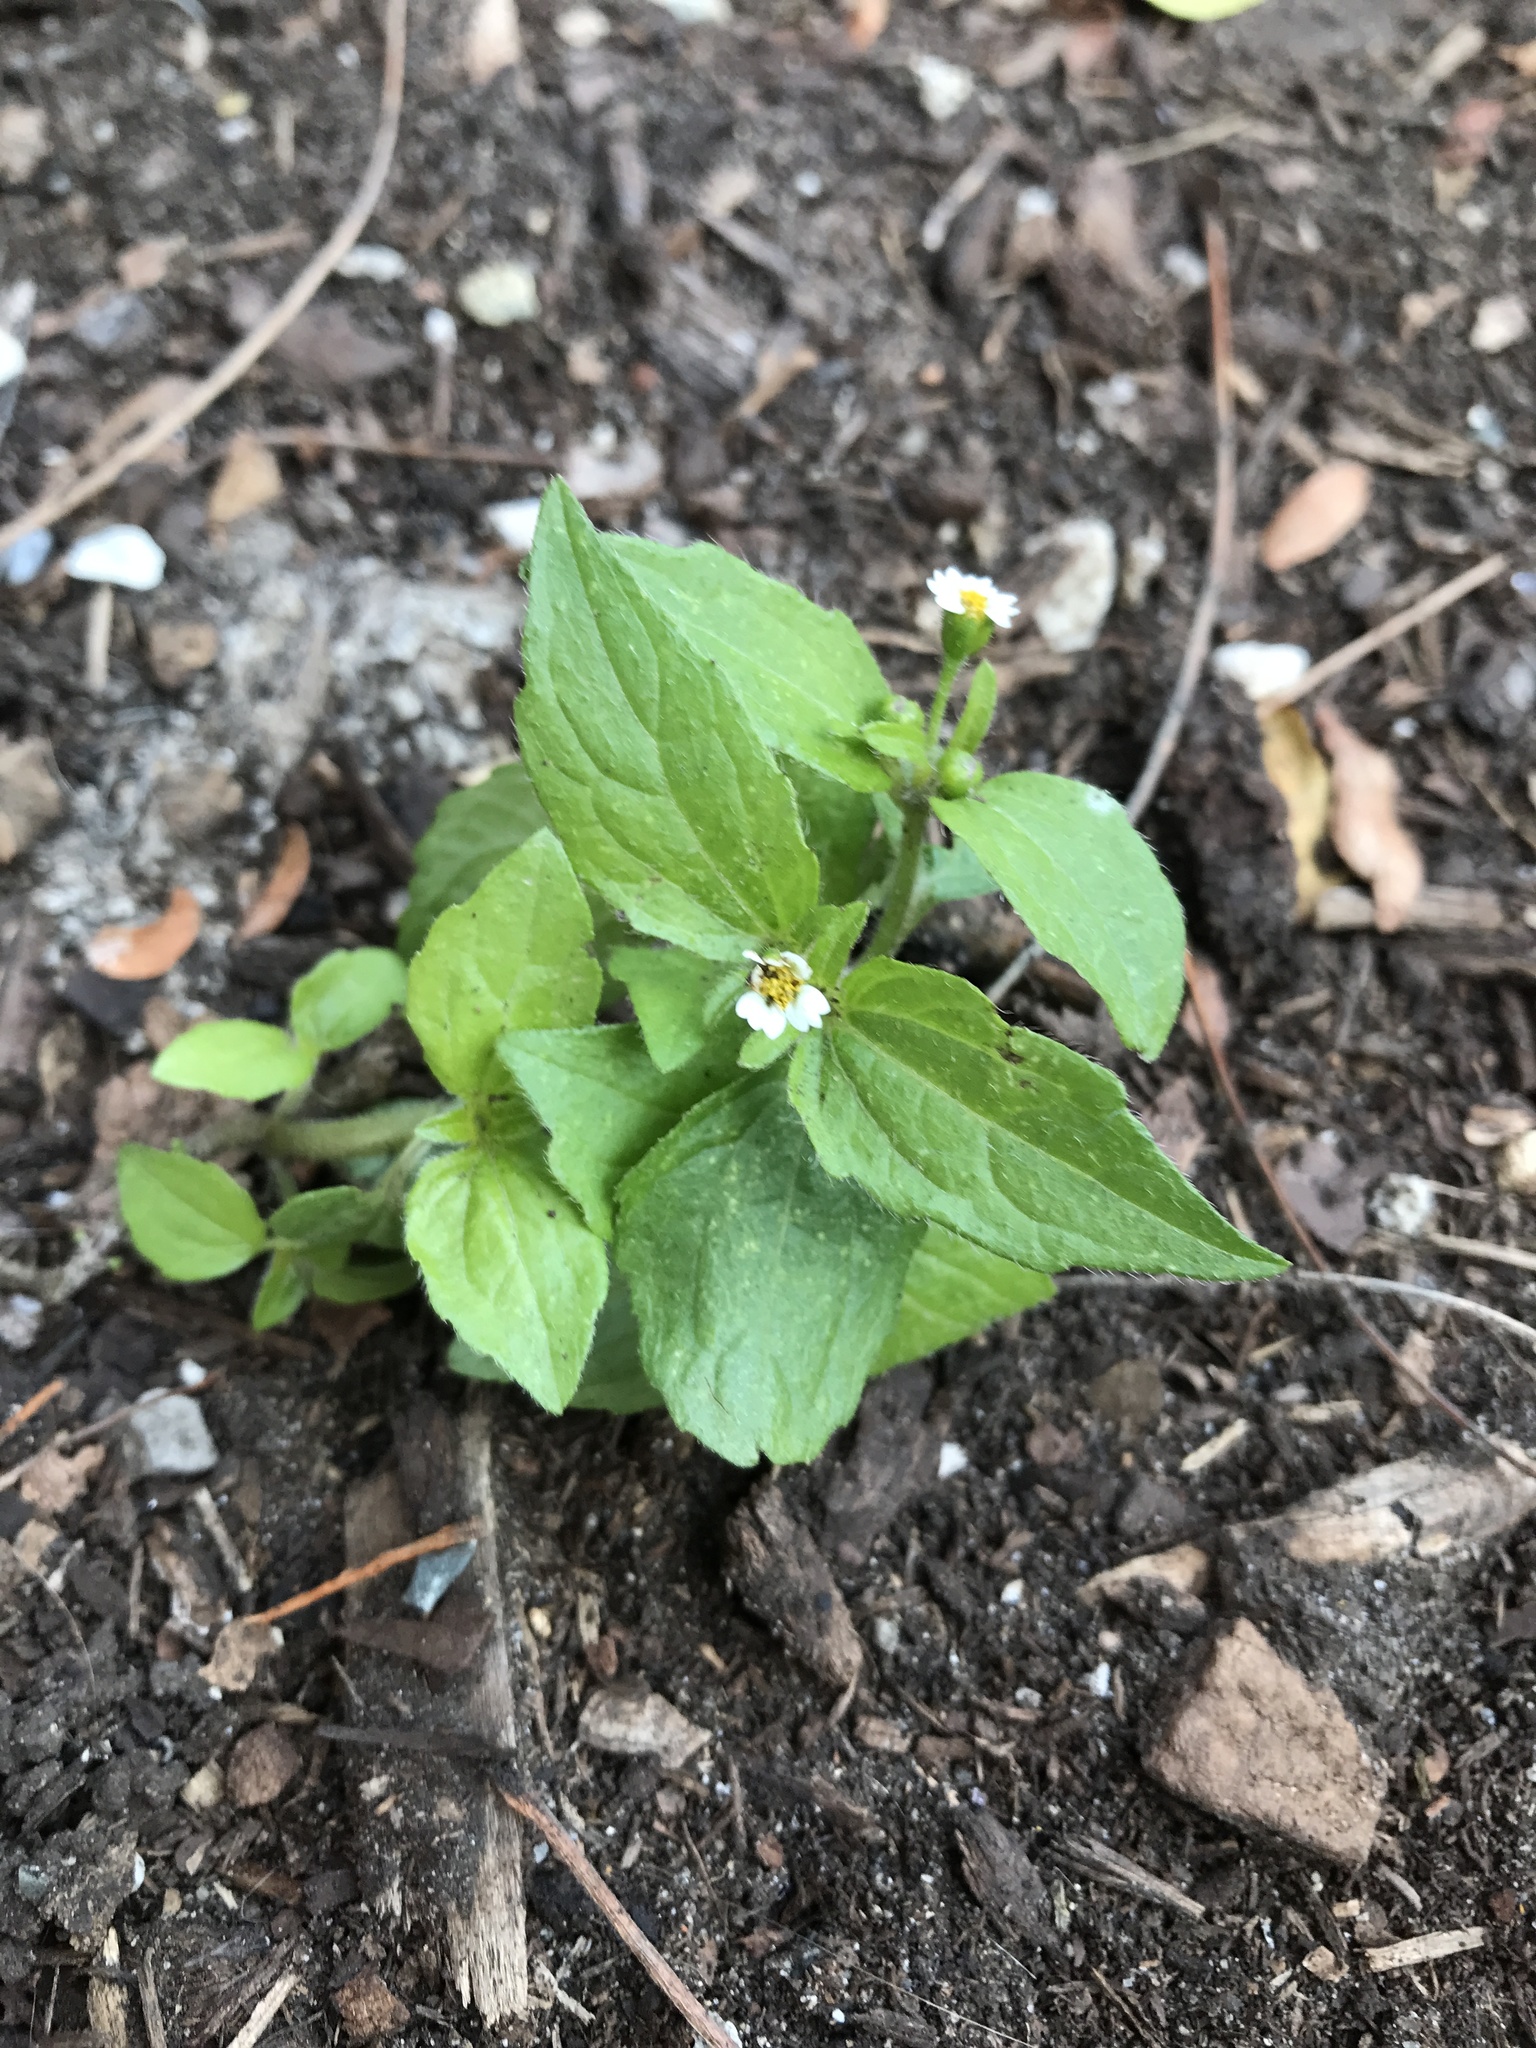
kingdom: Plantae
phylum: Tracheophyta
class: Magnoliopsida
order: Asterales
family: Asteraceae
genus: Galinsoga
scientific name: Galinsoga quadriradiata
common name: Shaggy soldier
